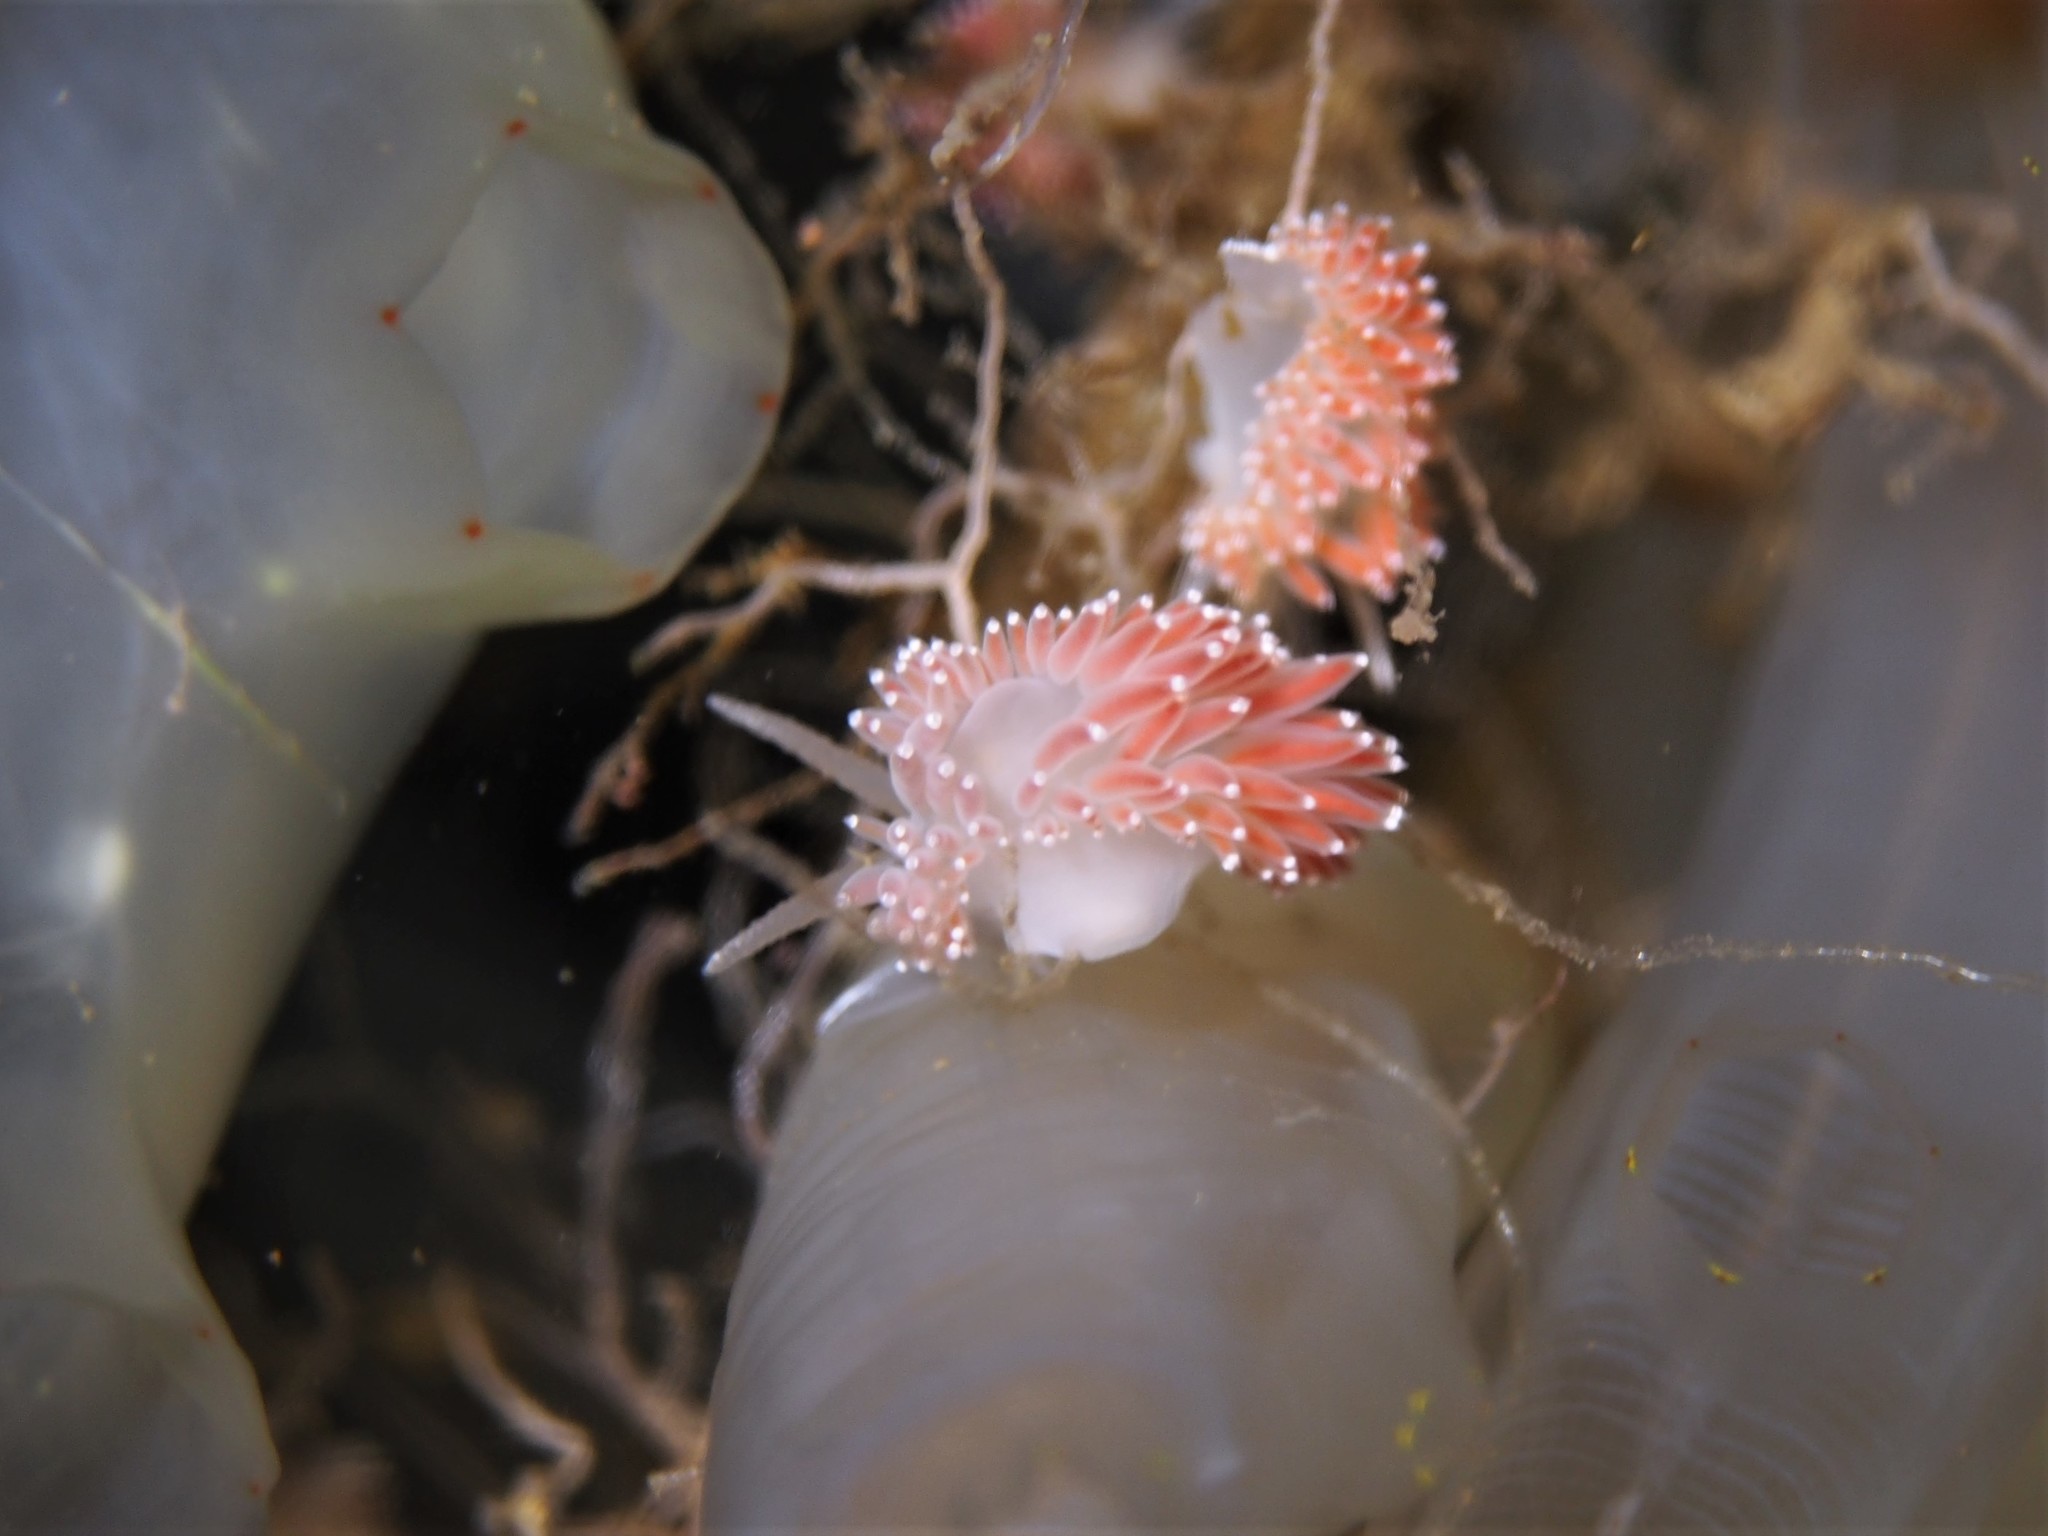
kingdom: Animalia
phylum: Mollusca
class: Gastropoda
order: Nudibranchia
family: Coryphellidae
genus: Coryphella
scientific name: Coryphella verrucosa
